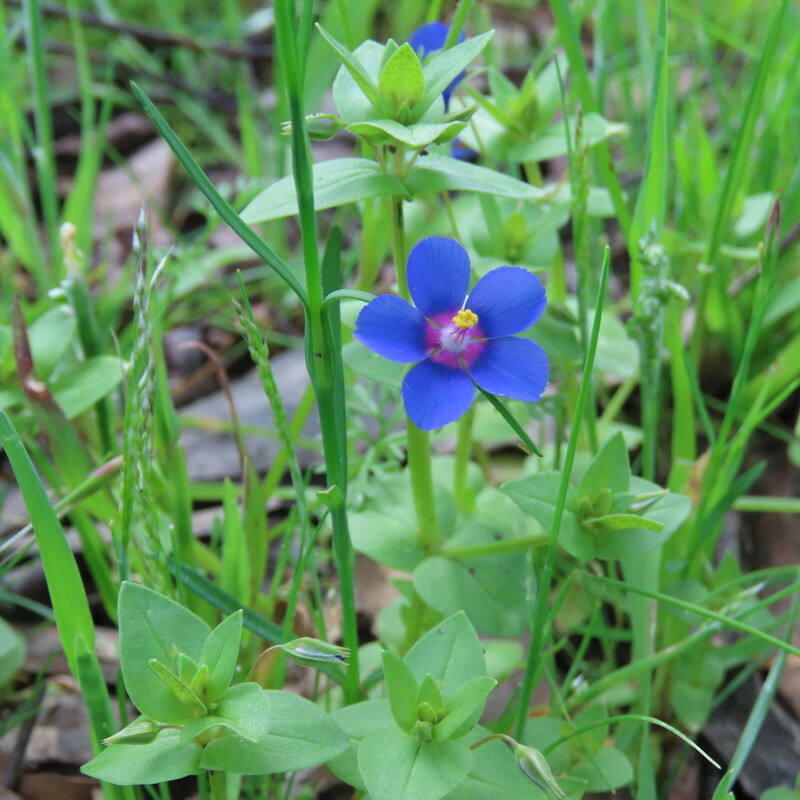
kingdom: Plantae
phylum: Tracheophyta
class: Magnoliopsida
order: Ericales
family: Primulaceae
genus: Lysimachia
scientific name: Lysimachia loeflingii
